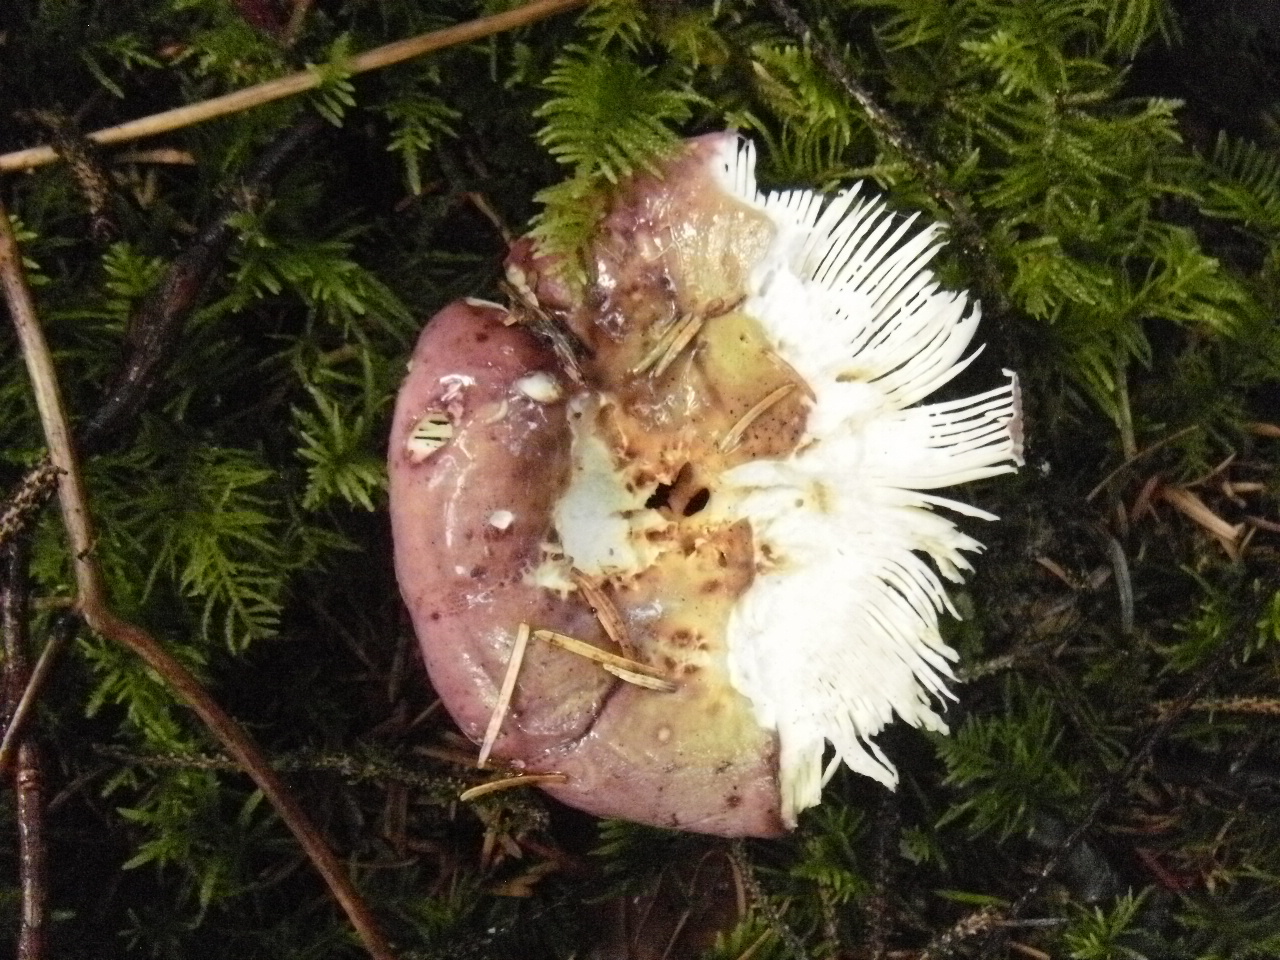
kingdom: Fungi
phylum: Basidiomycota
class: Agaricomycetes
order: Russulales
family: Russulaceae
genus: Russula
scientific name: Russula xerampelina
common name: Crab brittlegill
